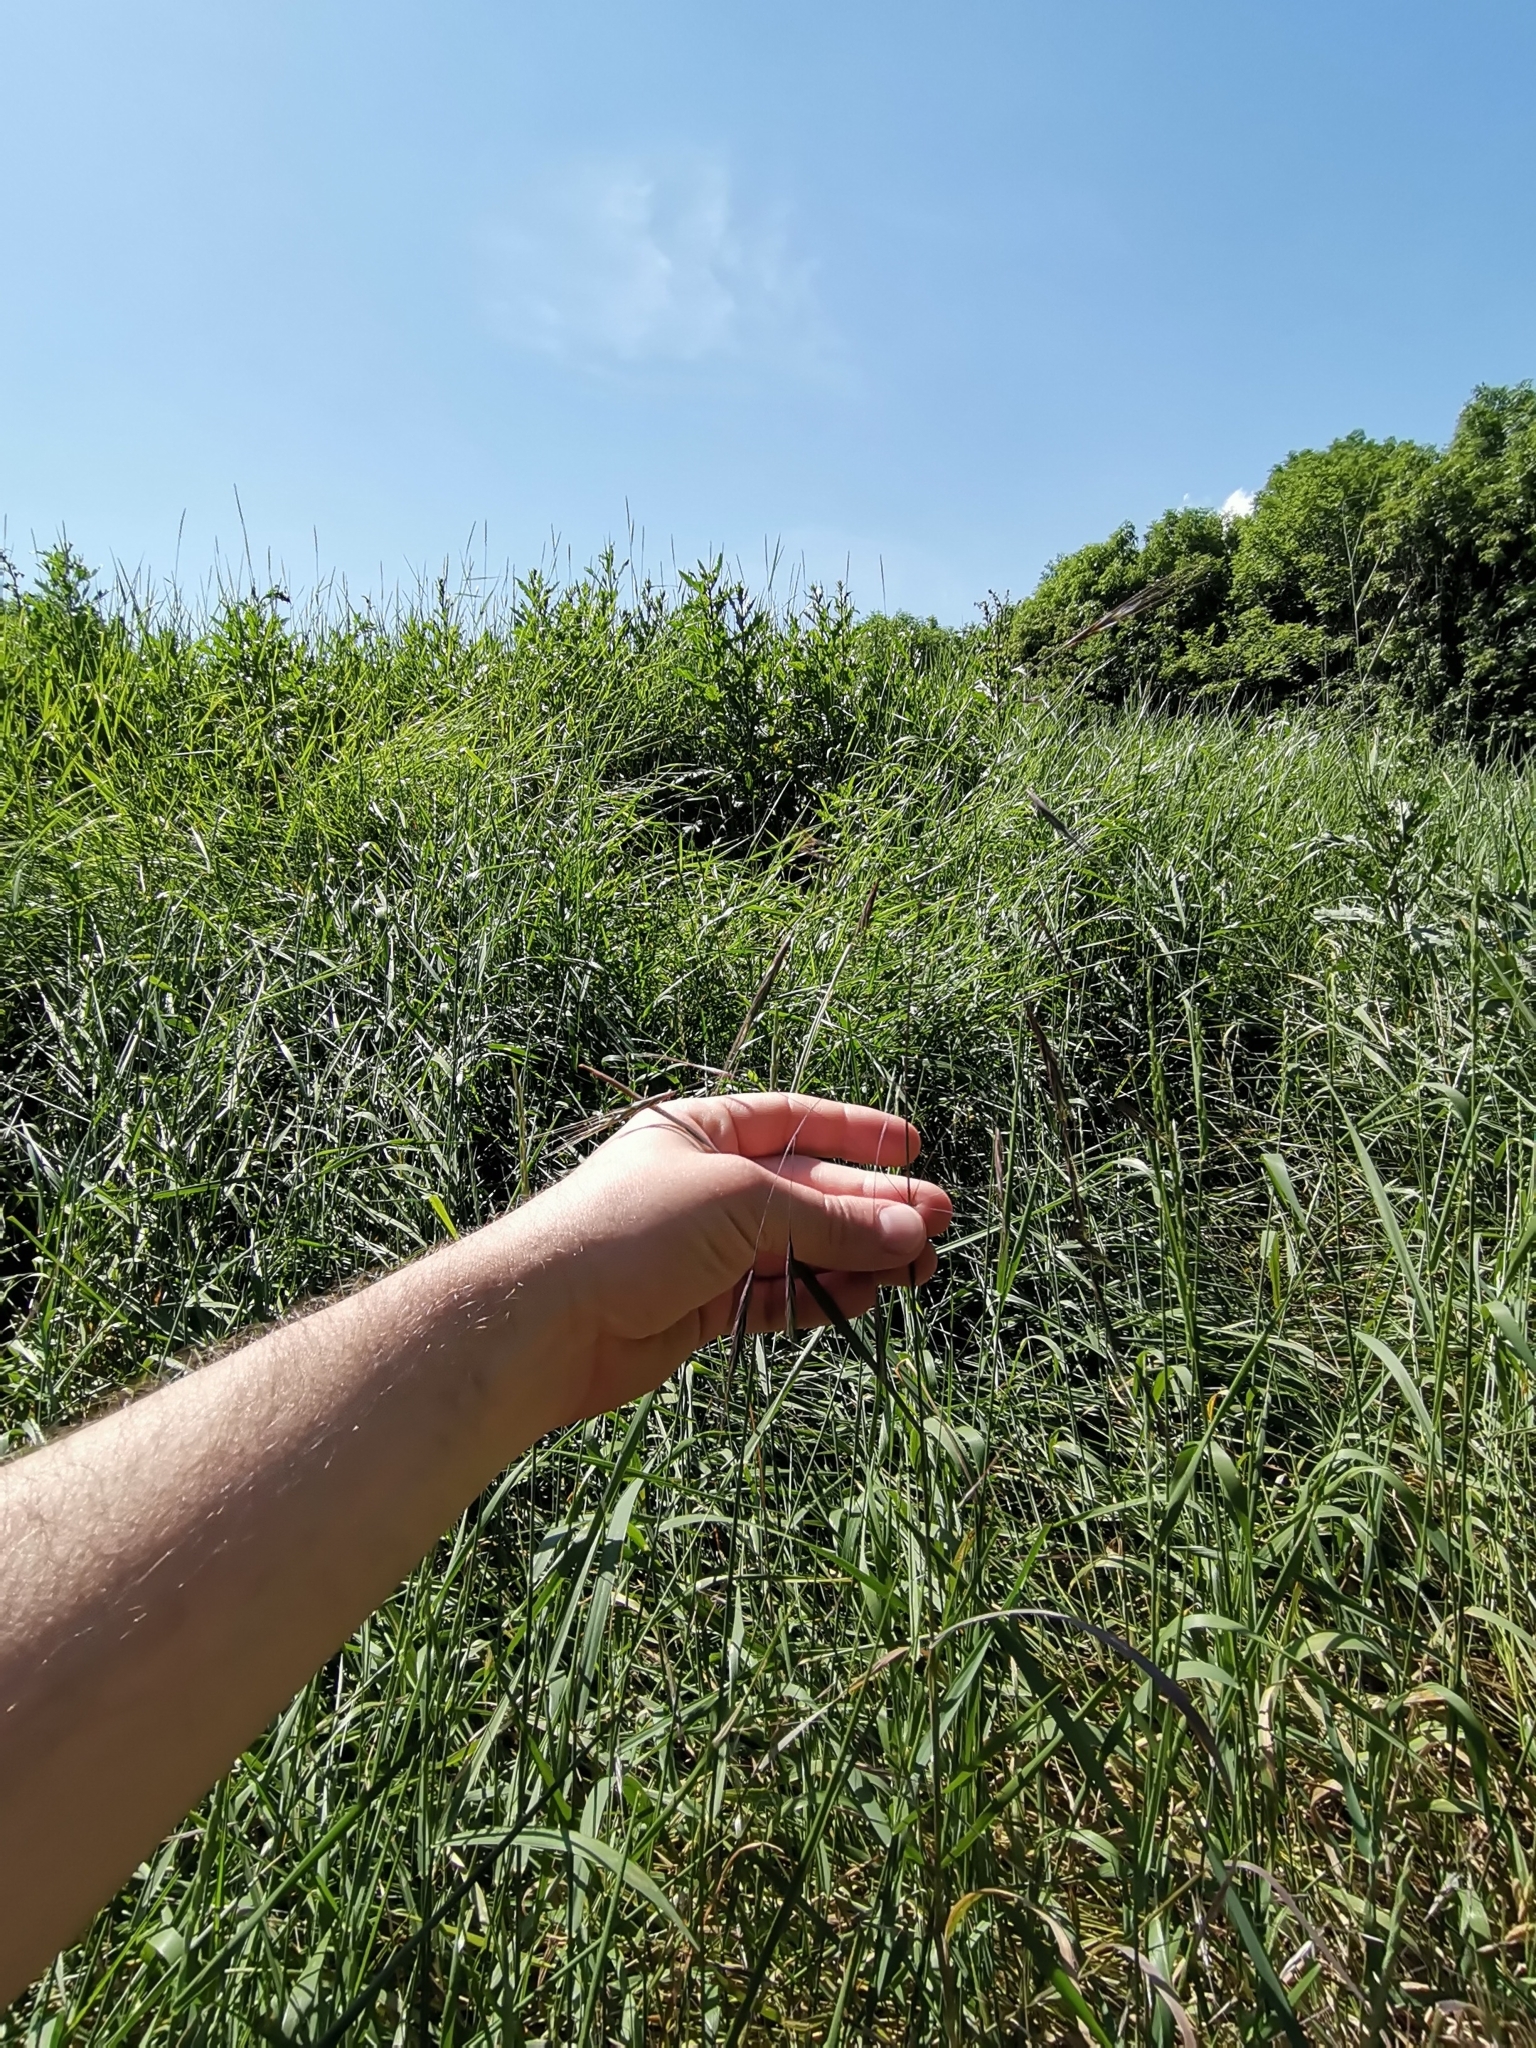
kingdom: Plantae
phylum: Tracheophyta
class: Liliopsida
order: Poales
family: Poaceae
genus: Bromus
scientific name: Bromus sterilis
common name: Poverty brome
